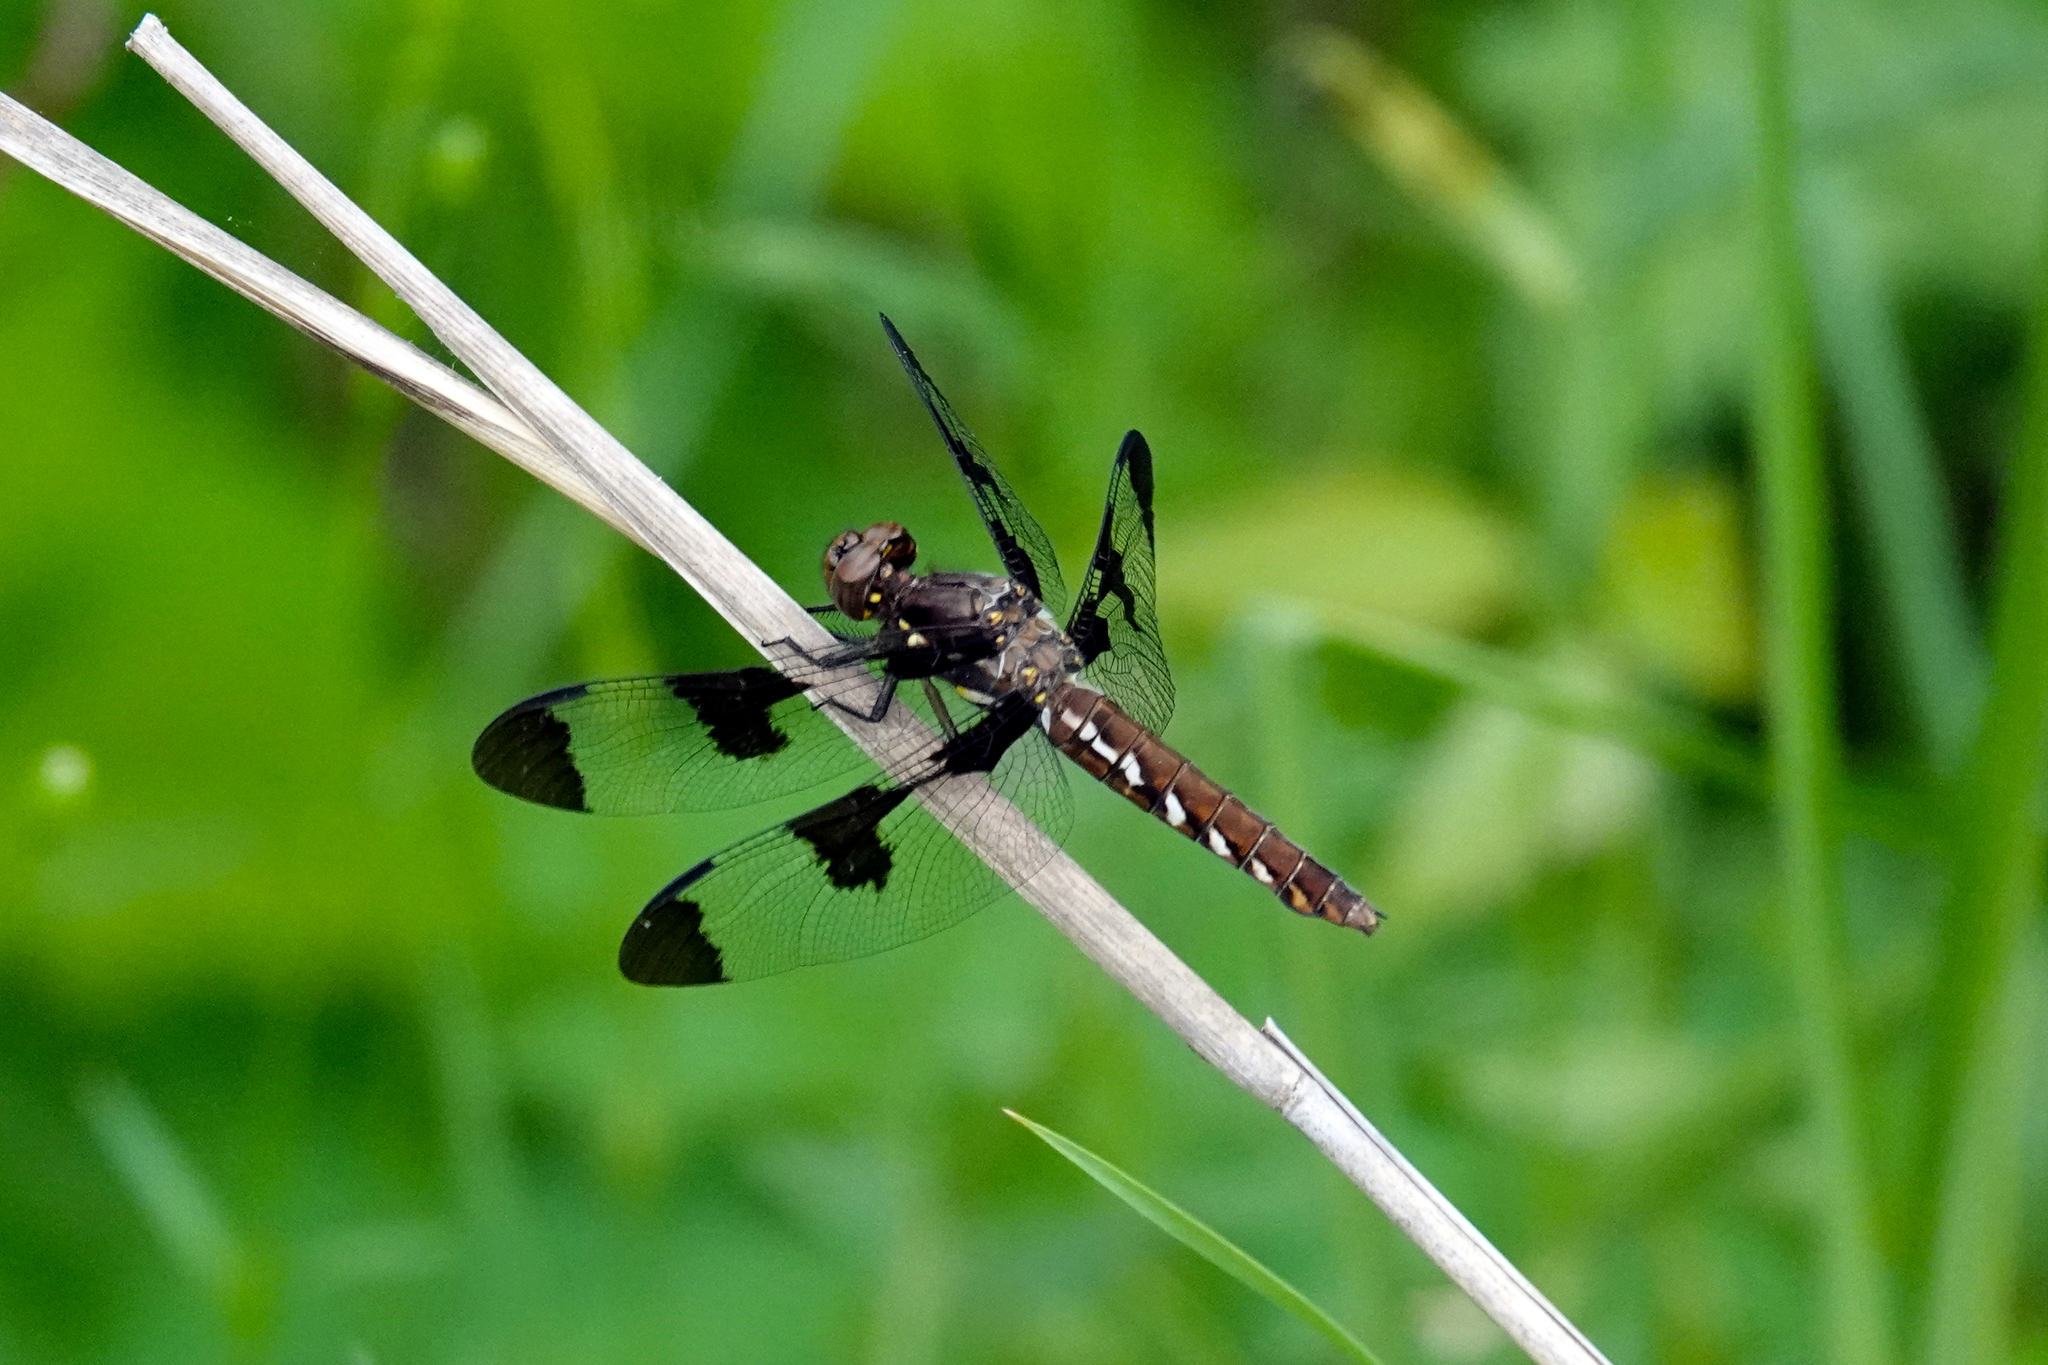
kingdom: Animalia
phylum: Arthropoda
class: Insecta
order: Odonata
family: Libellulidae
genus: Plathemis
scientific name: Plathemis lydia
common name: Common whitetail
